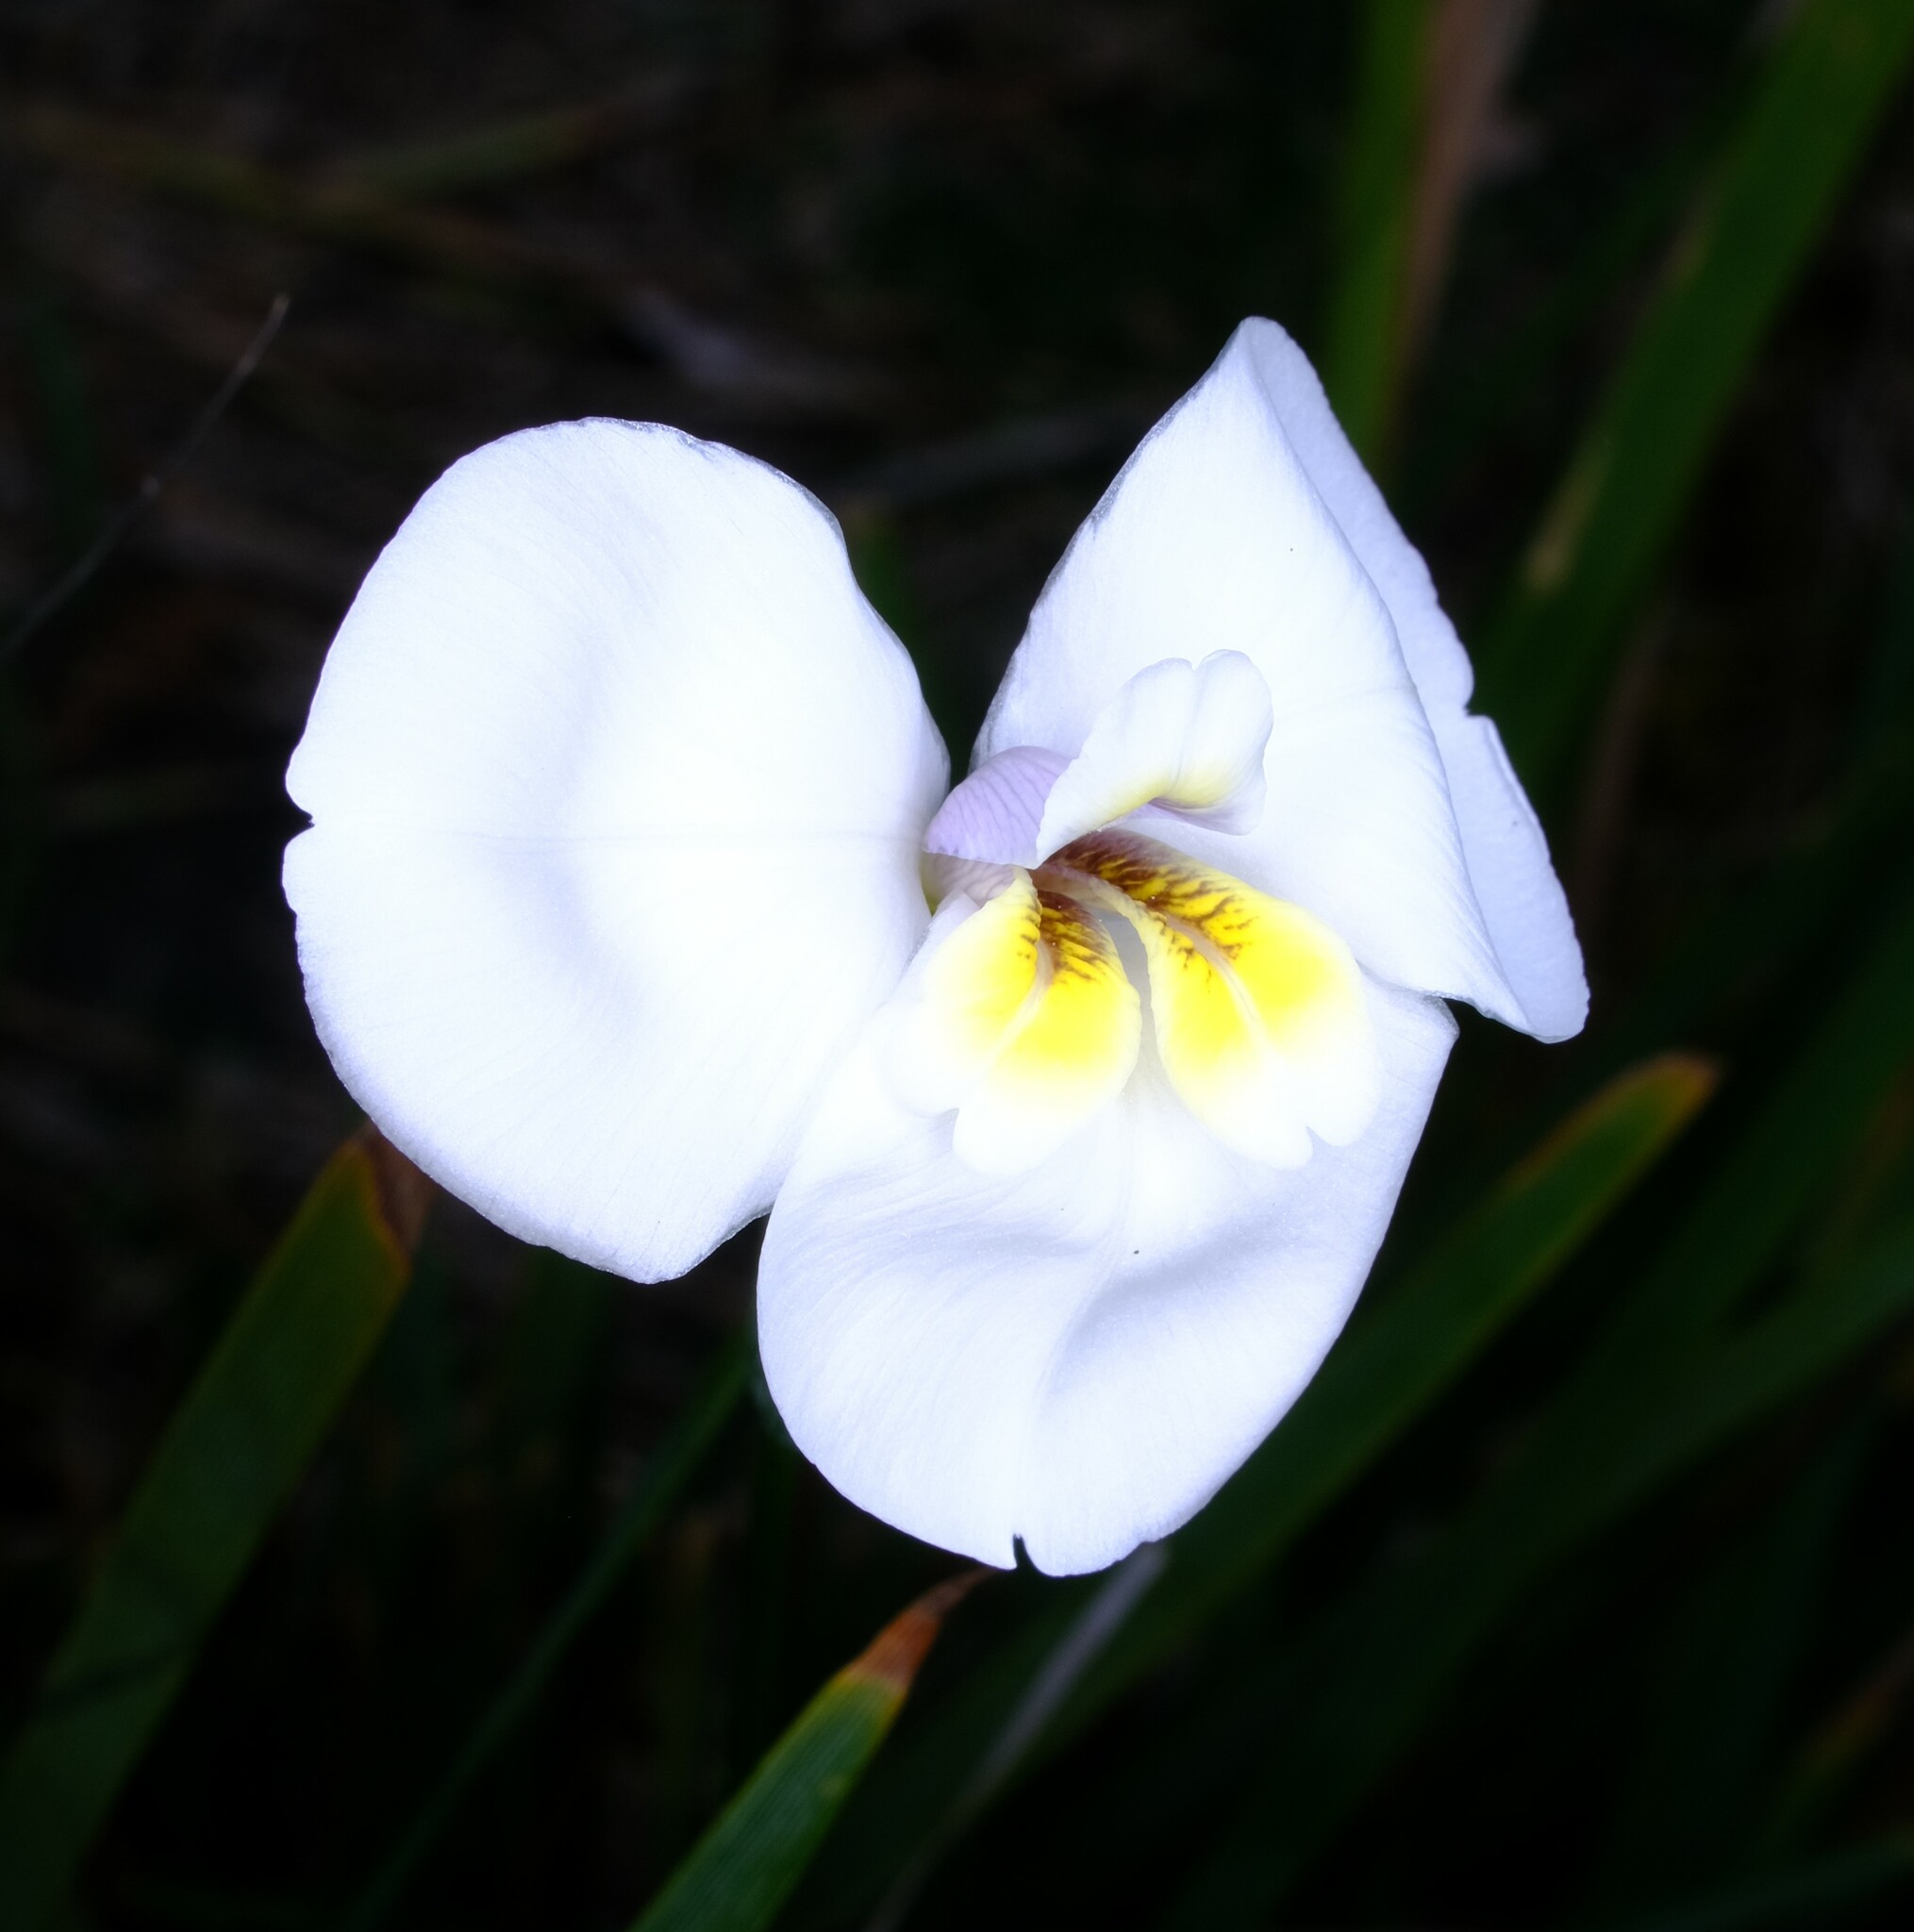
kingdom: Plantae
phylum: Tracheophyta
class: Liliopsida
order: Asparagales
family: Iridaceae
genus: Diplarrena
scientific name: Diplarrena moraea
